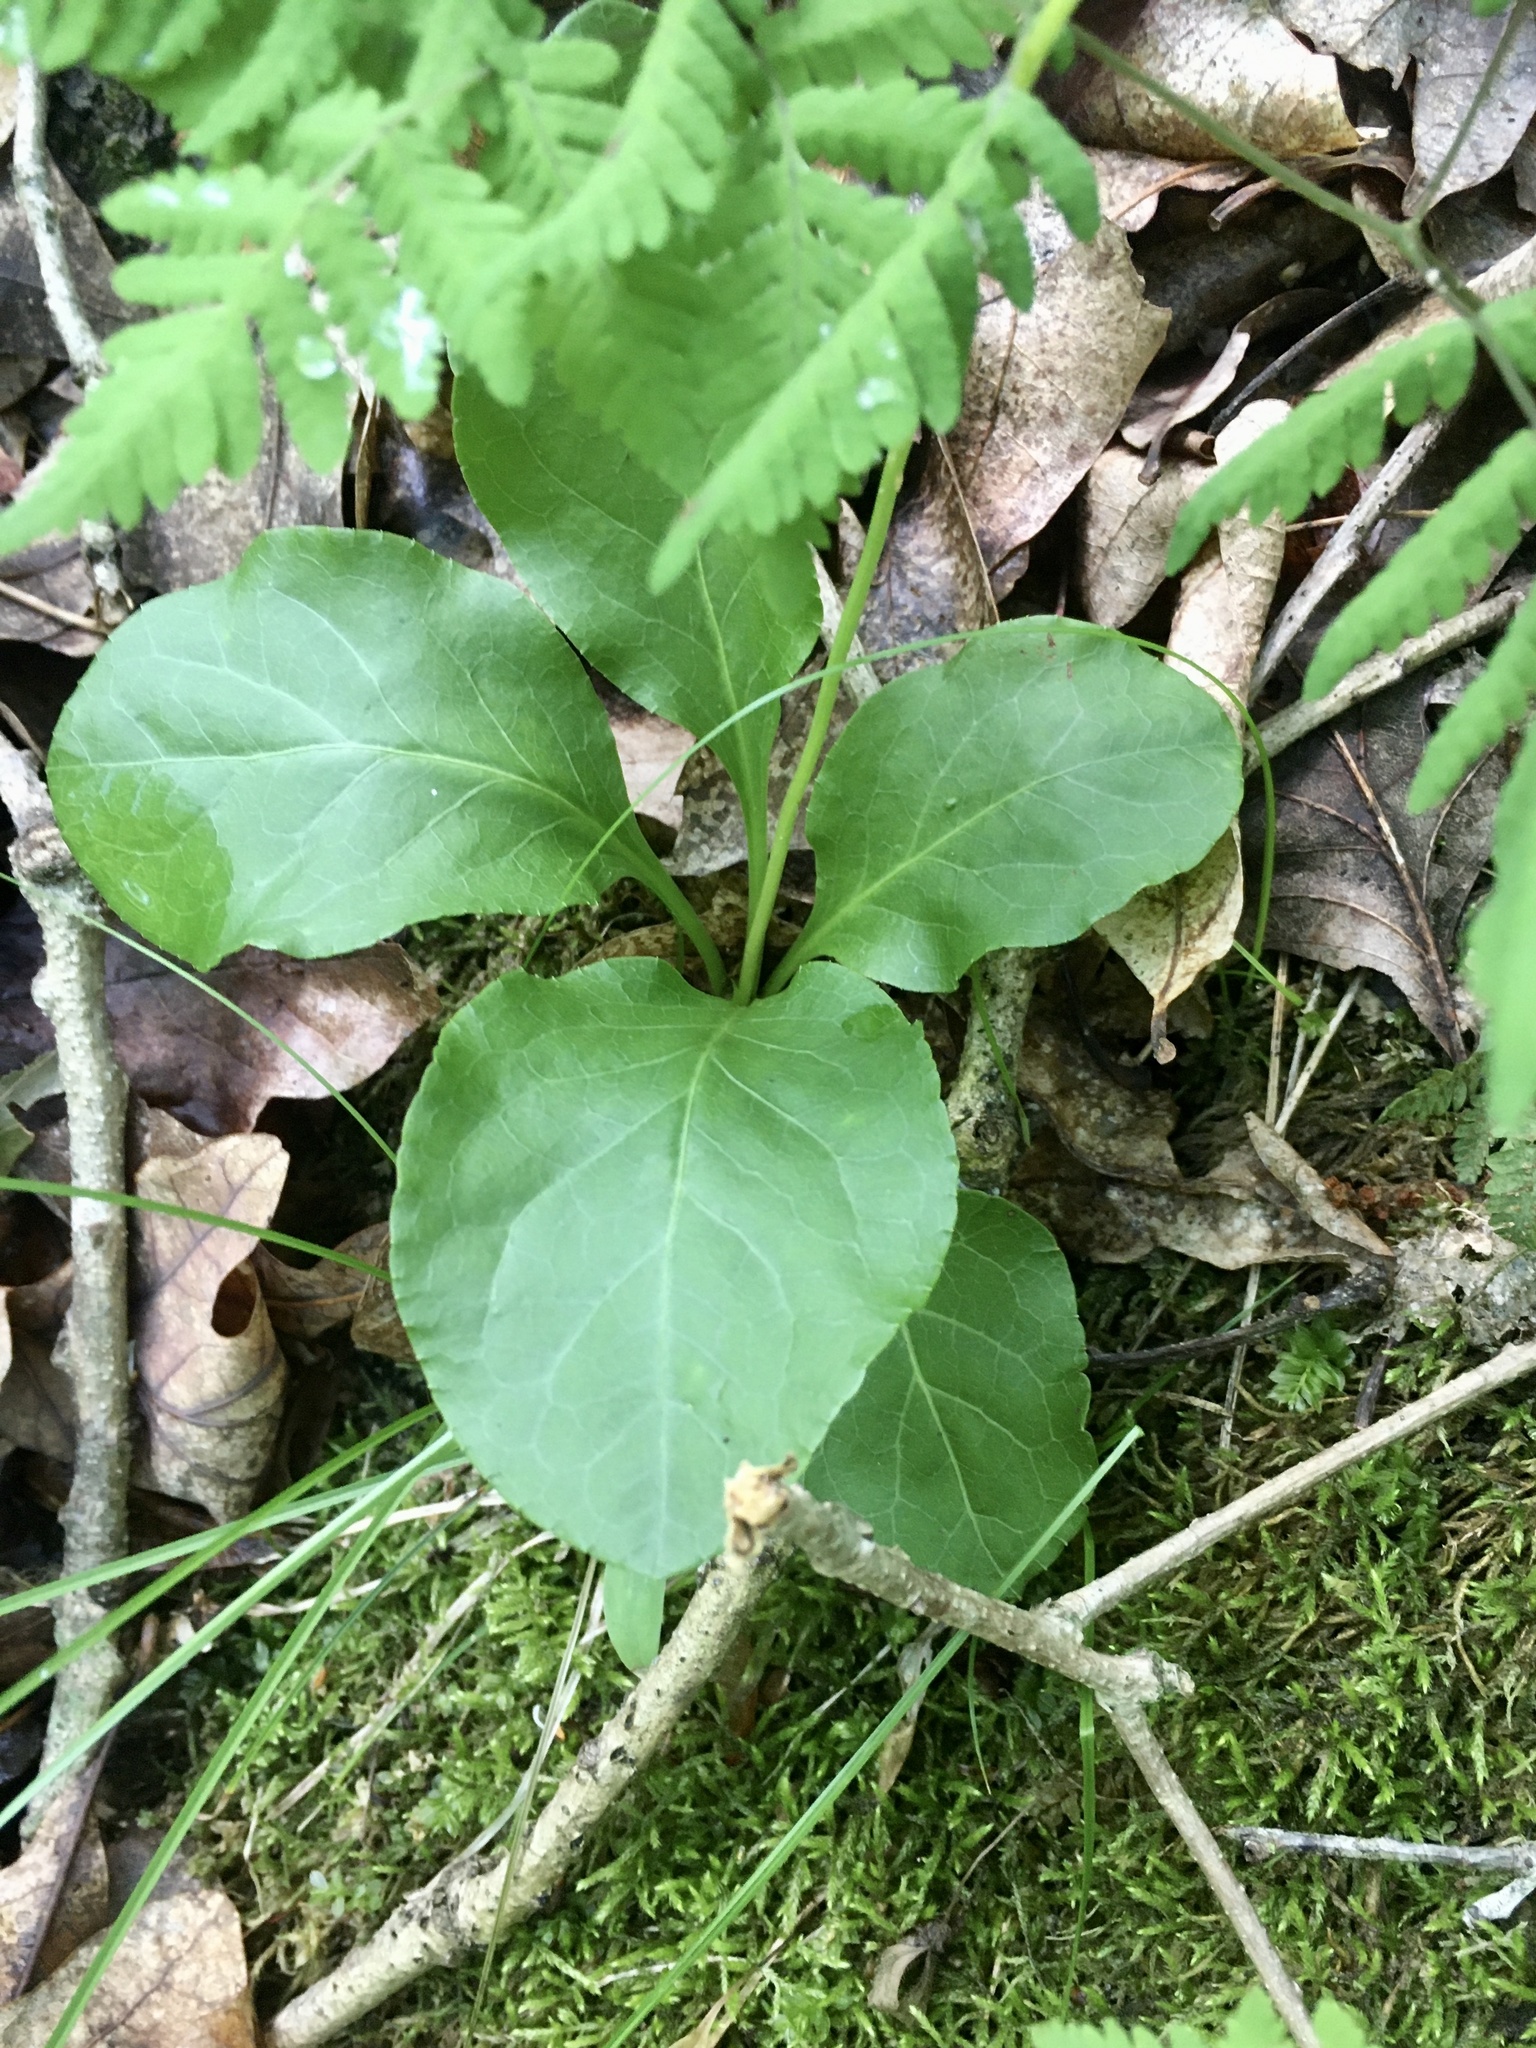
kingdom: Plantae
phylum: Tracheophyta
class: Magnoliopsida
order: Ericales
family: Ericaceae
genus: Pyrola
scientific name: Pyrola elliptica
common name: Shinleaf
